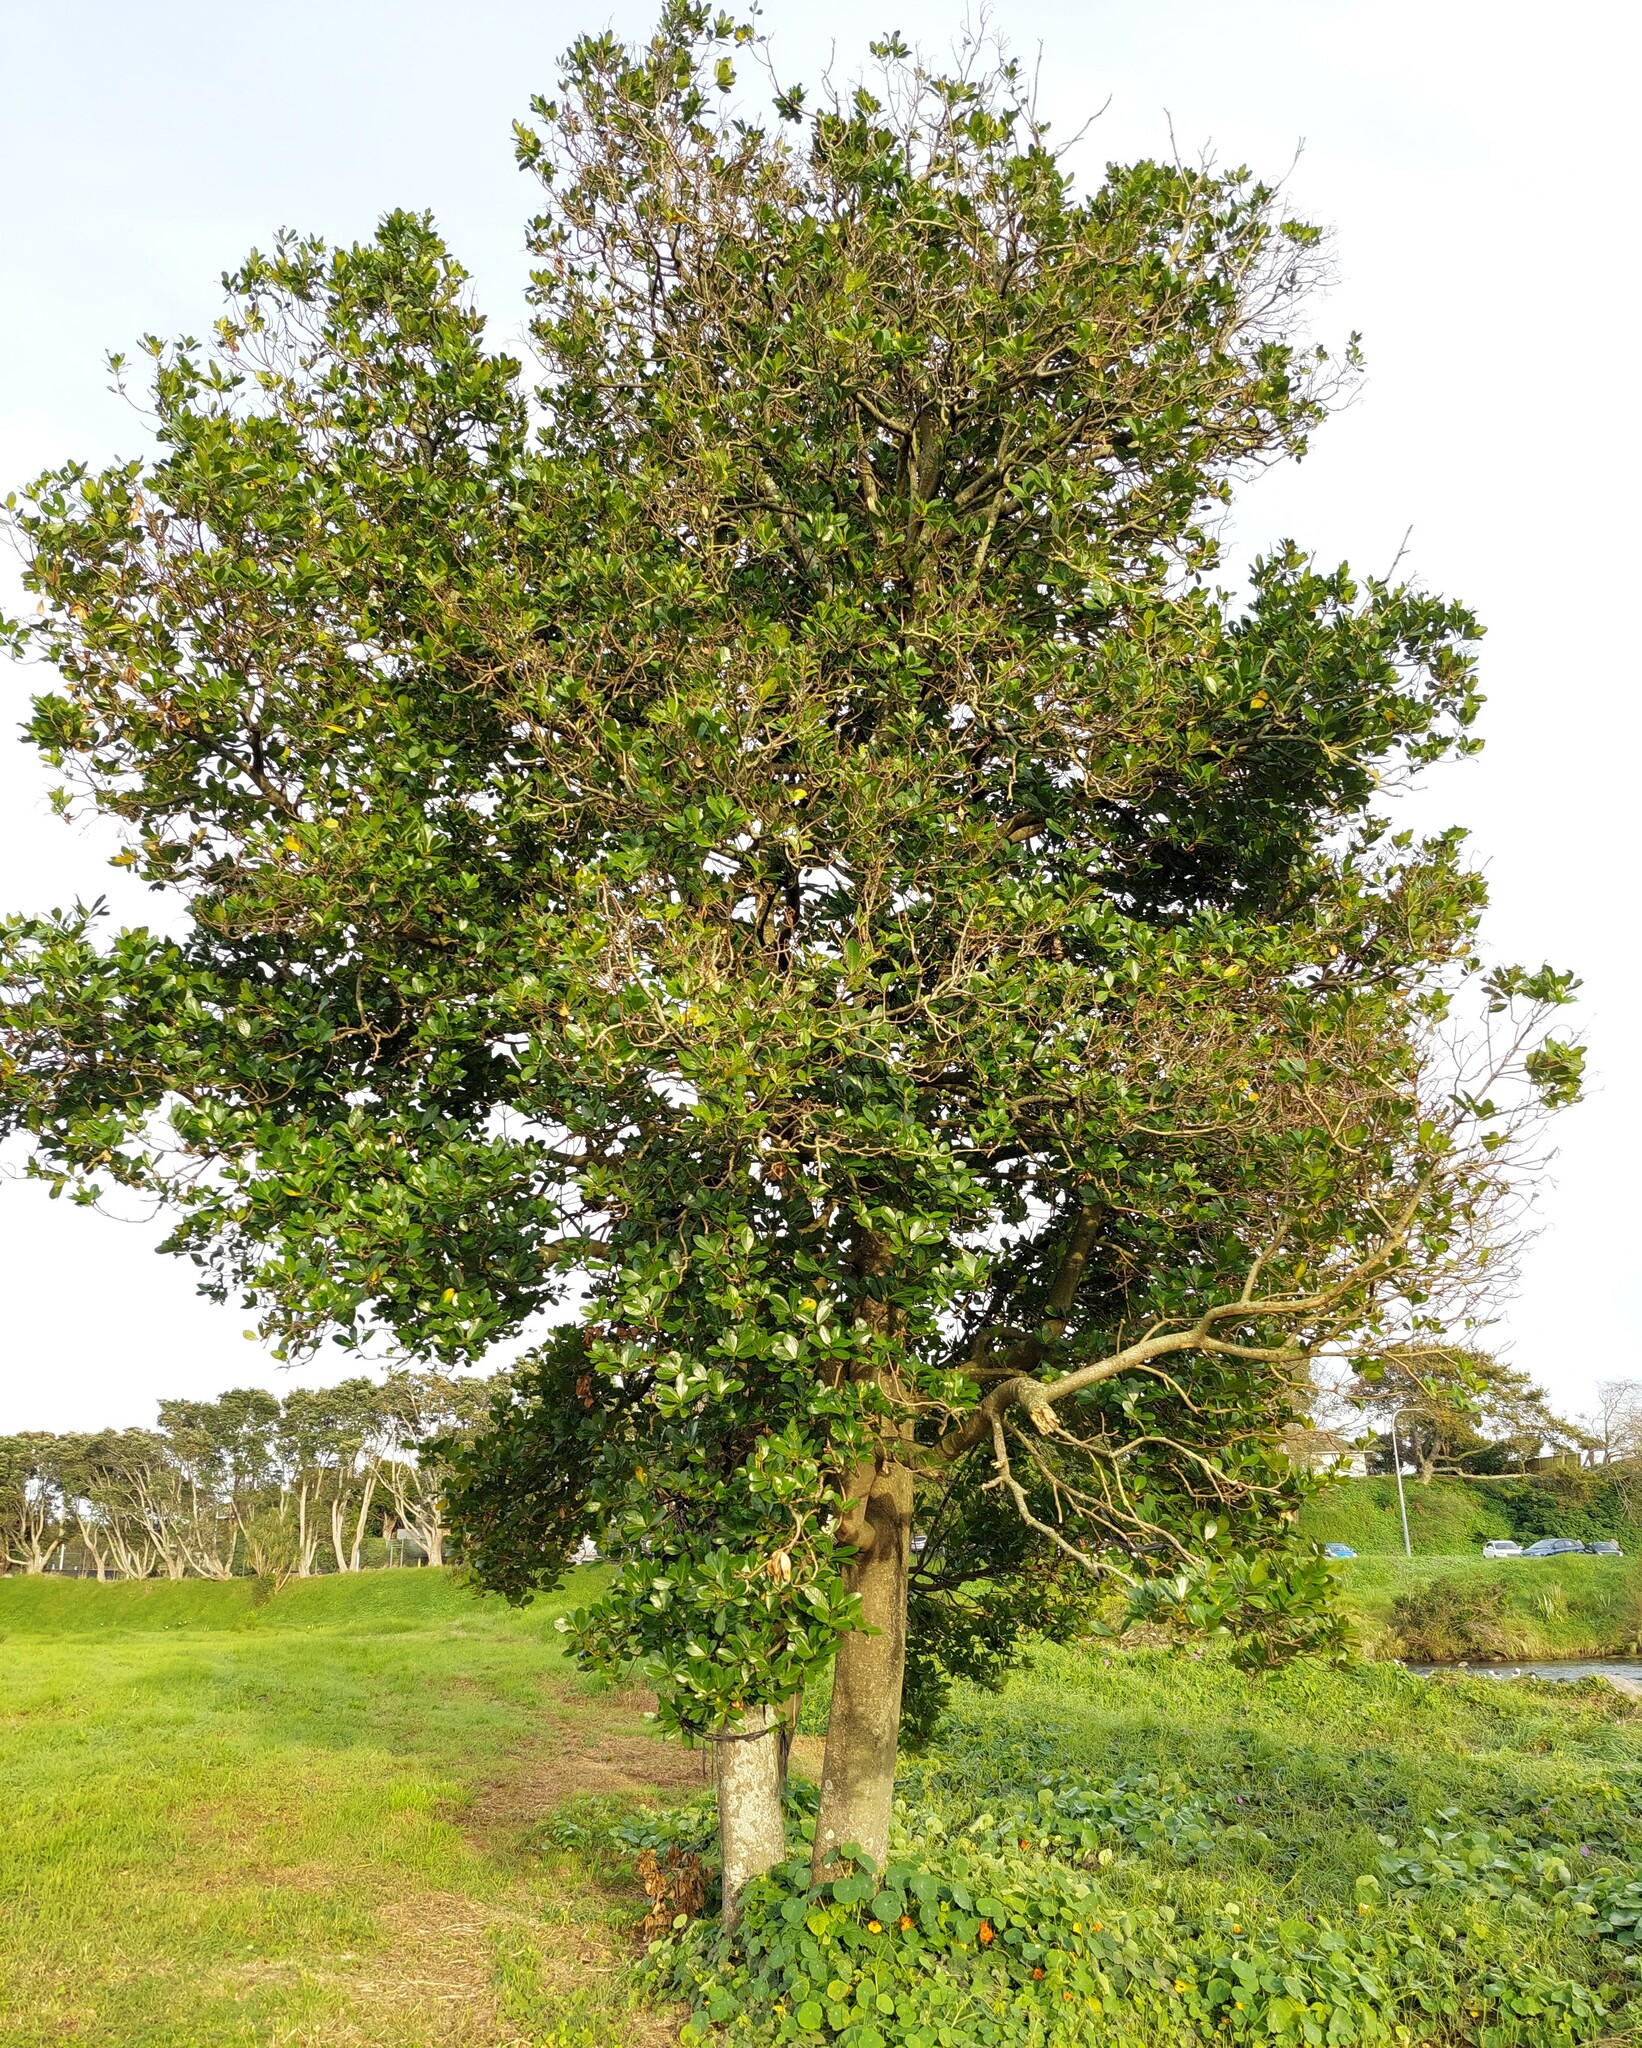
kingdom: Plantae
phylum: Tracheophyta
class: Magnoliopsida
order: Cucurbitales
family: Corynocarpaceae
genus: Corynocarpus
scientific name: Corynocarpus laevigatus
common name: New zealand laurel
